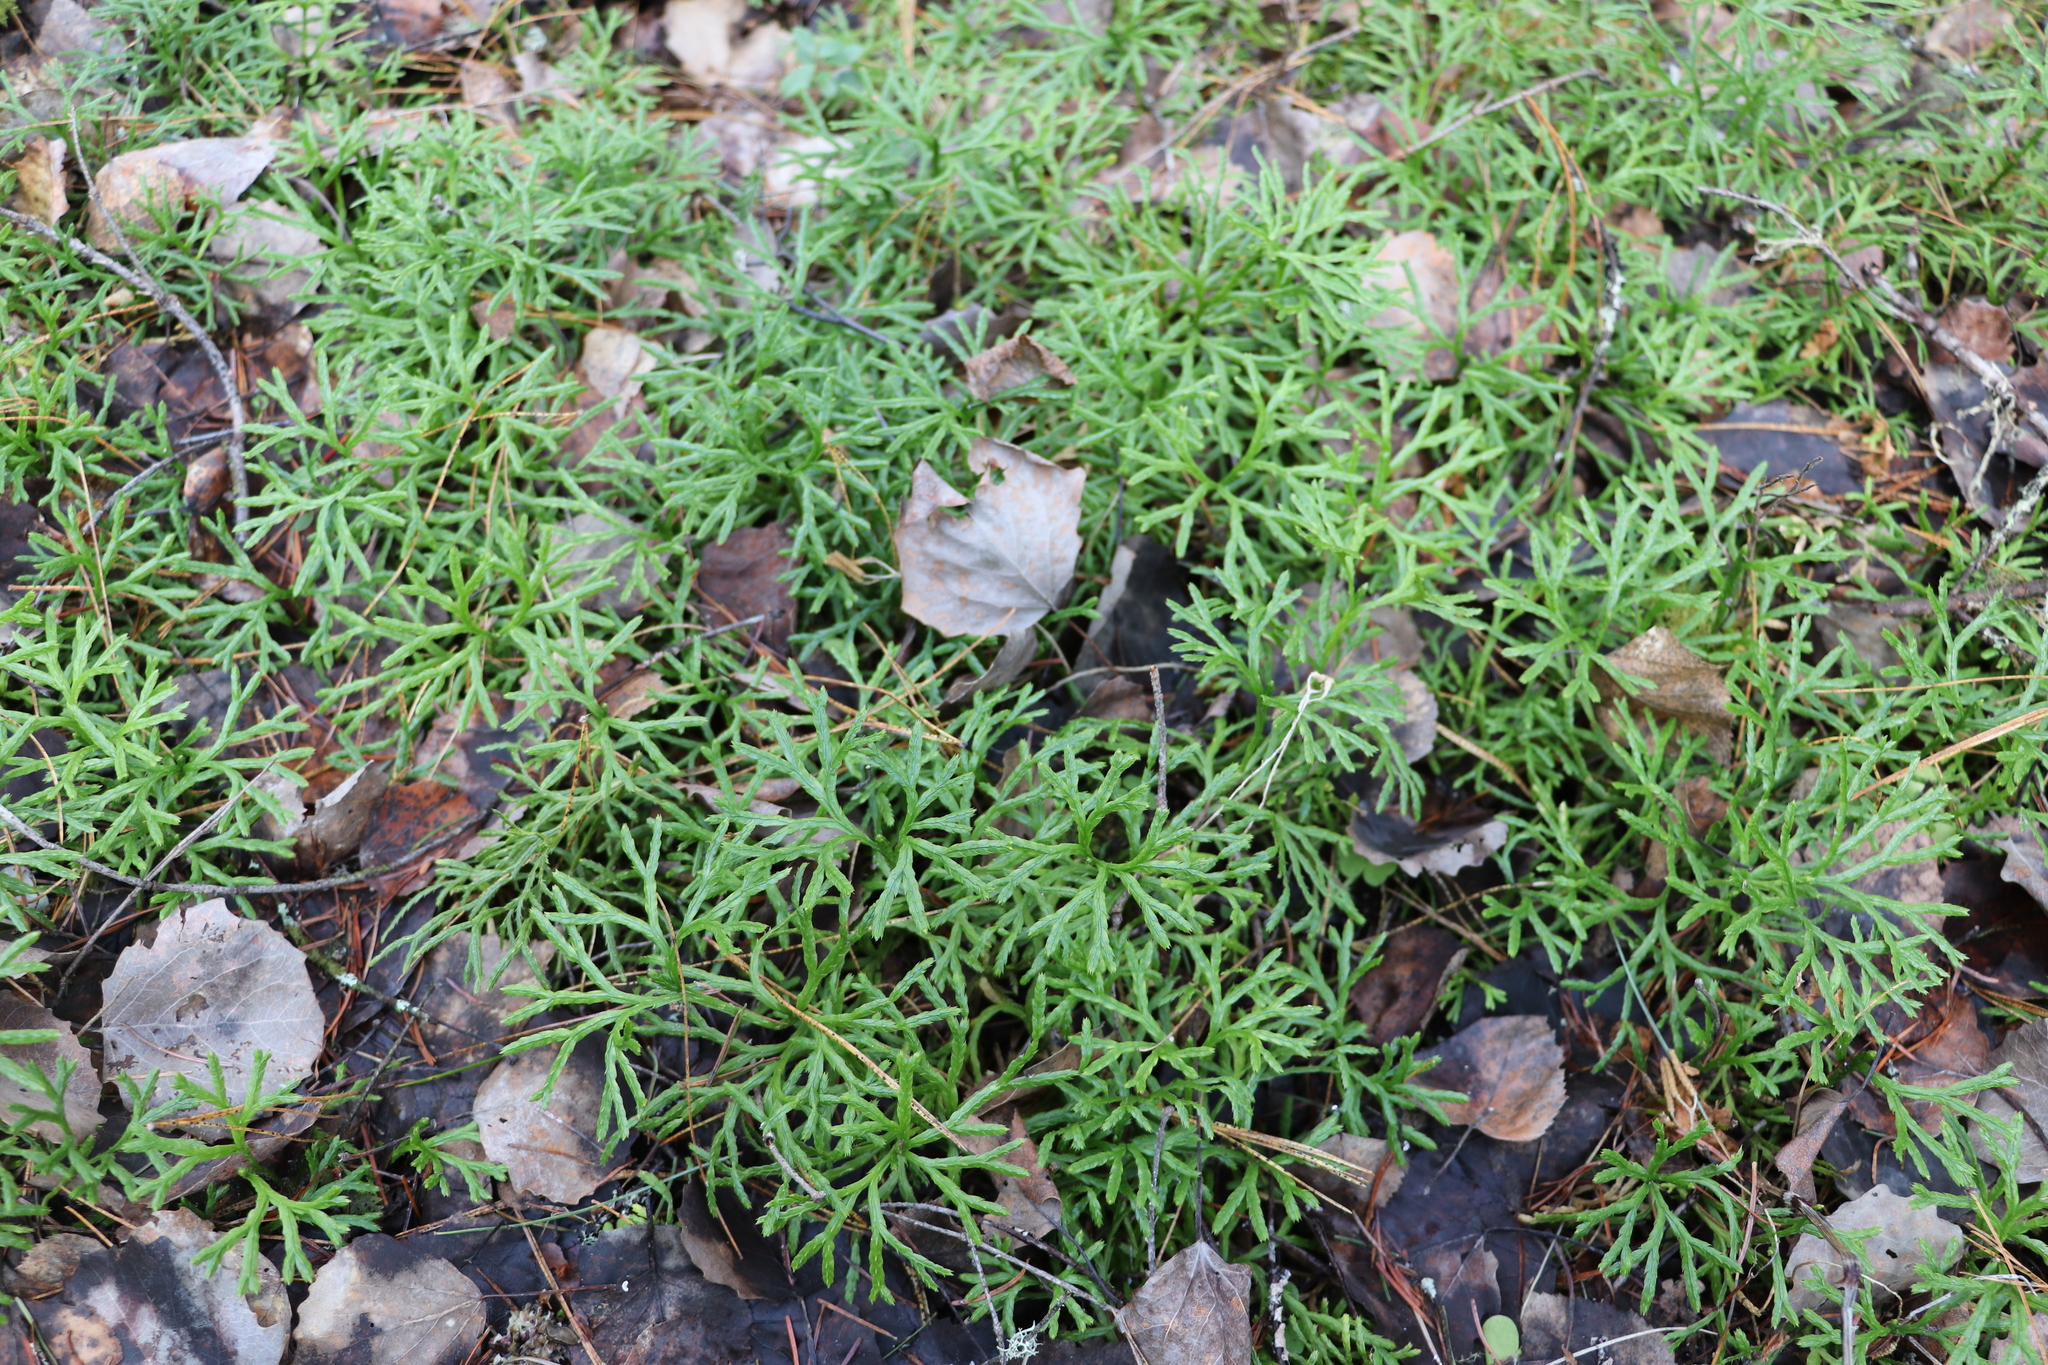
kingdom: Plantae
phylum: Tracheophyta
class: Lycopodiopsida
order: Lycopodiales
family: Lycopodiaceae
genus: Diphasiastrum
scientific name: Diphasiastrum complanatum
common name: Northern running-pine
